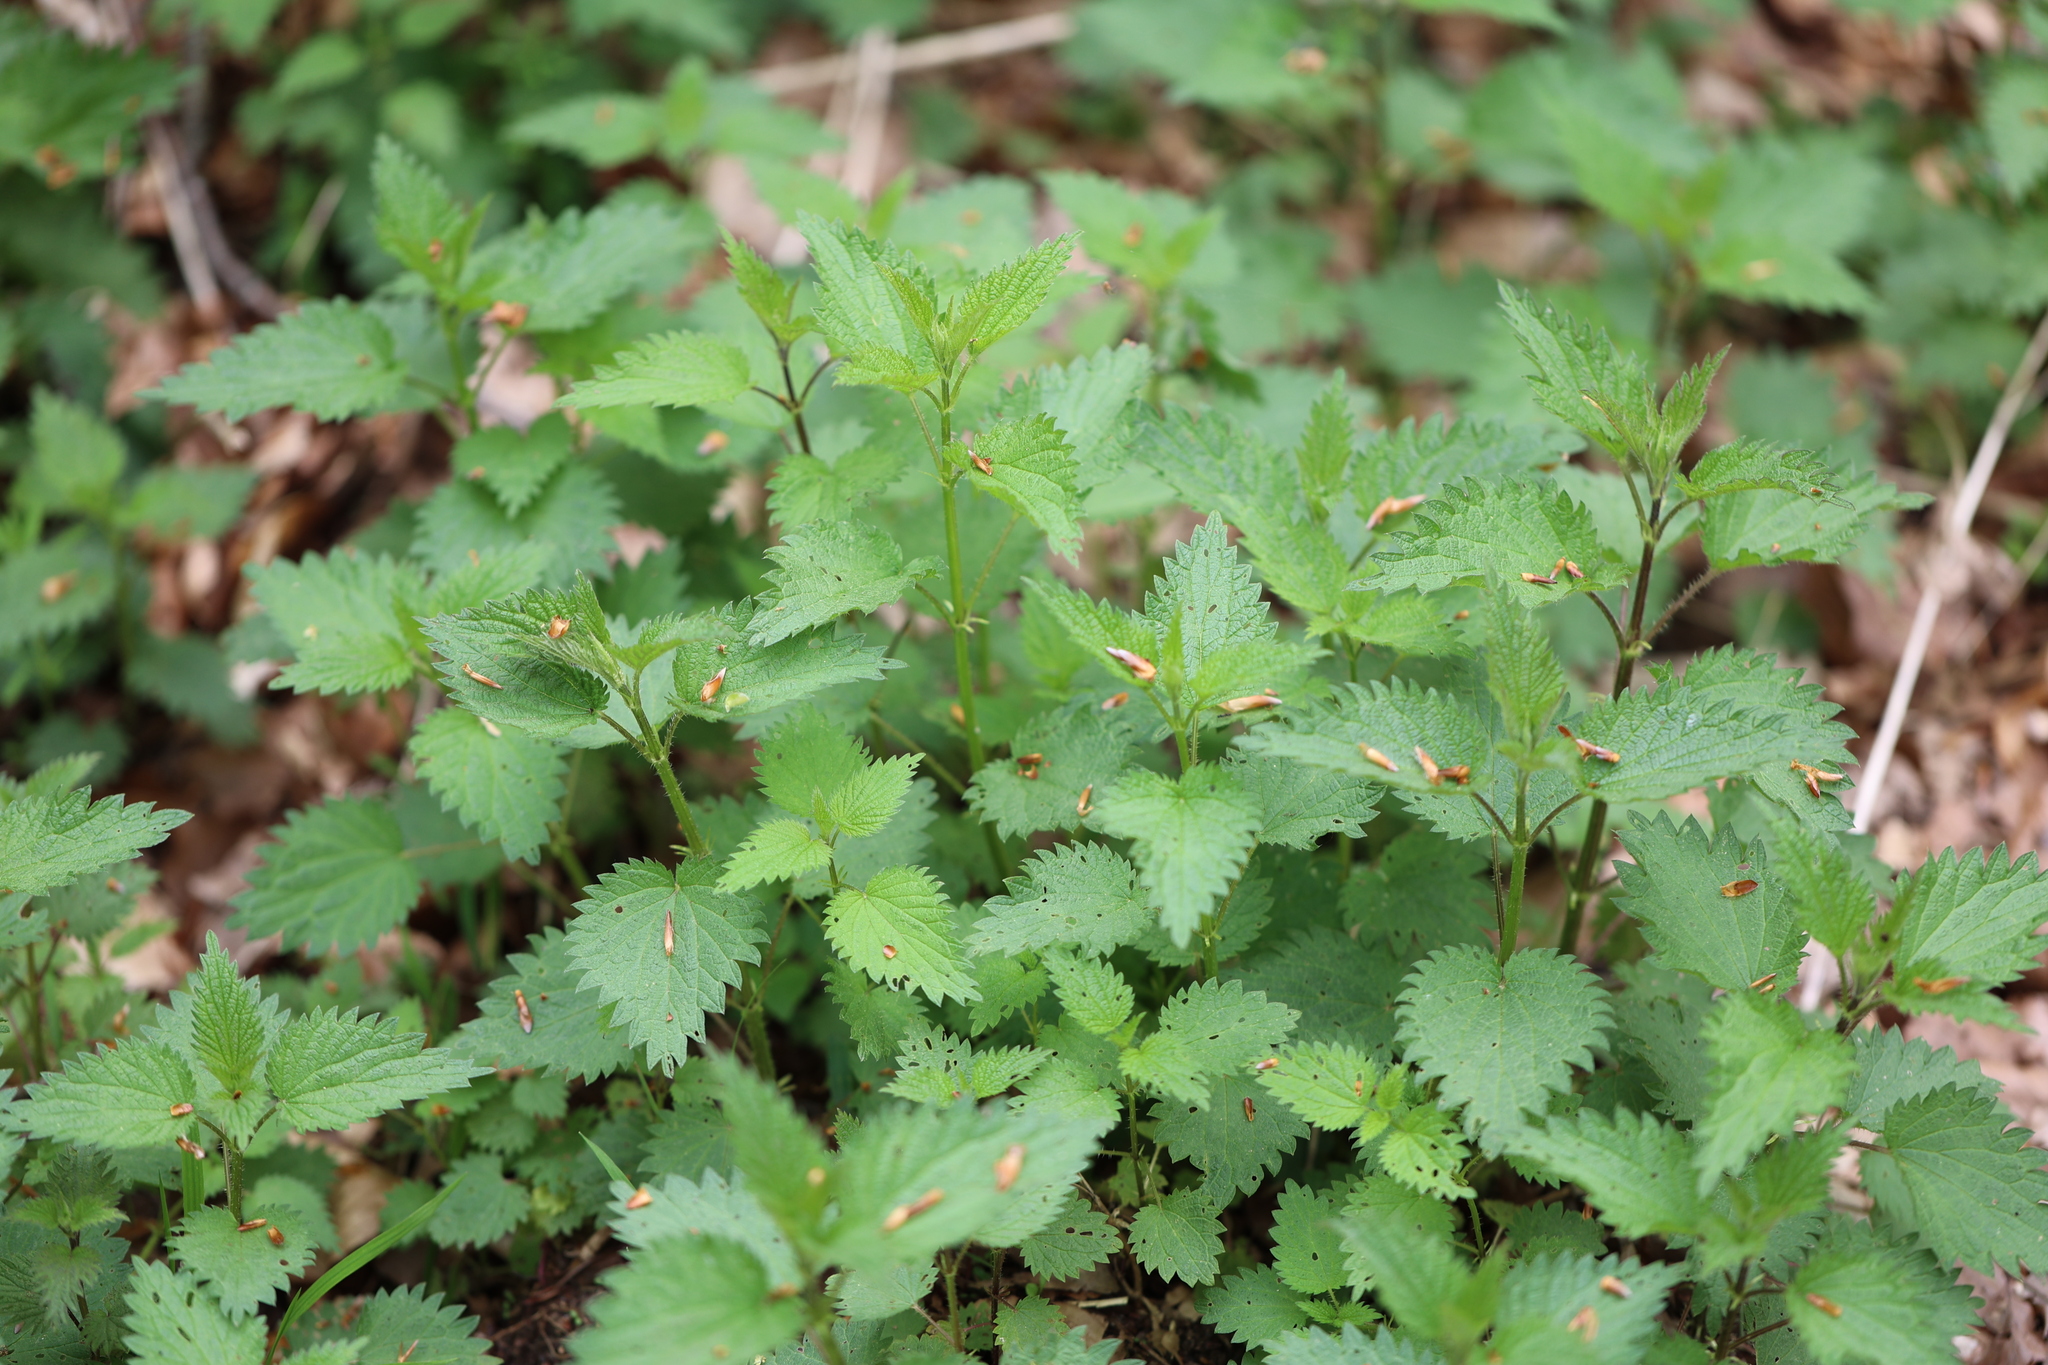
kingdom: Plantae
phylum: Tracheophyta
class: Magnoliopsida
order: Rosales
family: Urticaceae
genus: Urtica
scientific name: Urtica dioica
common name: Common nettle
